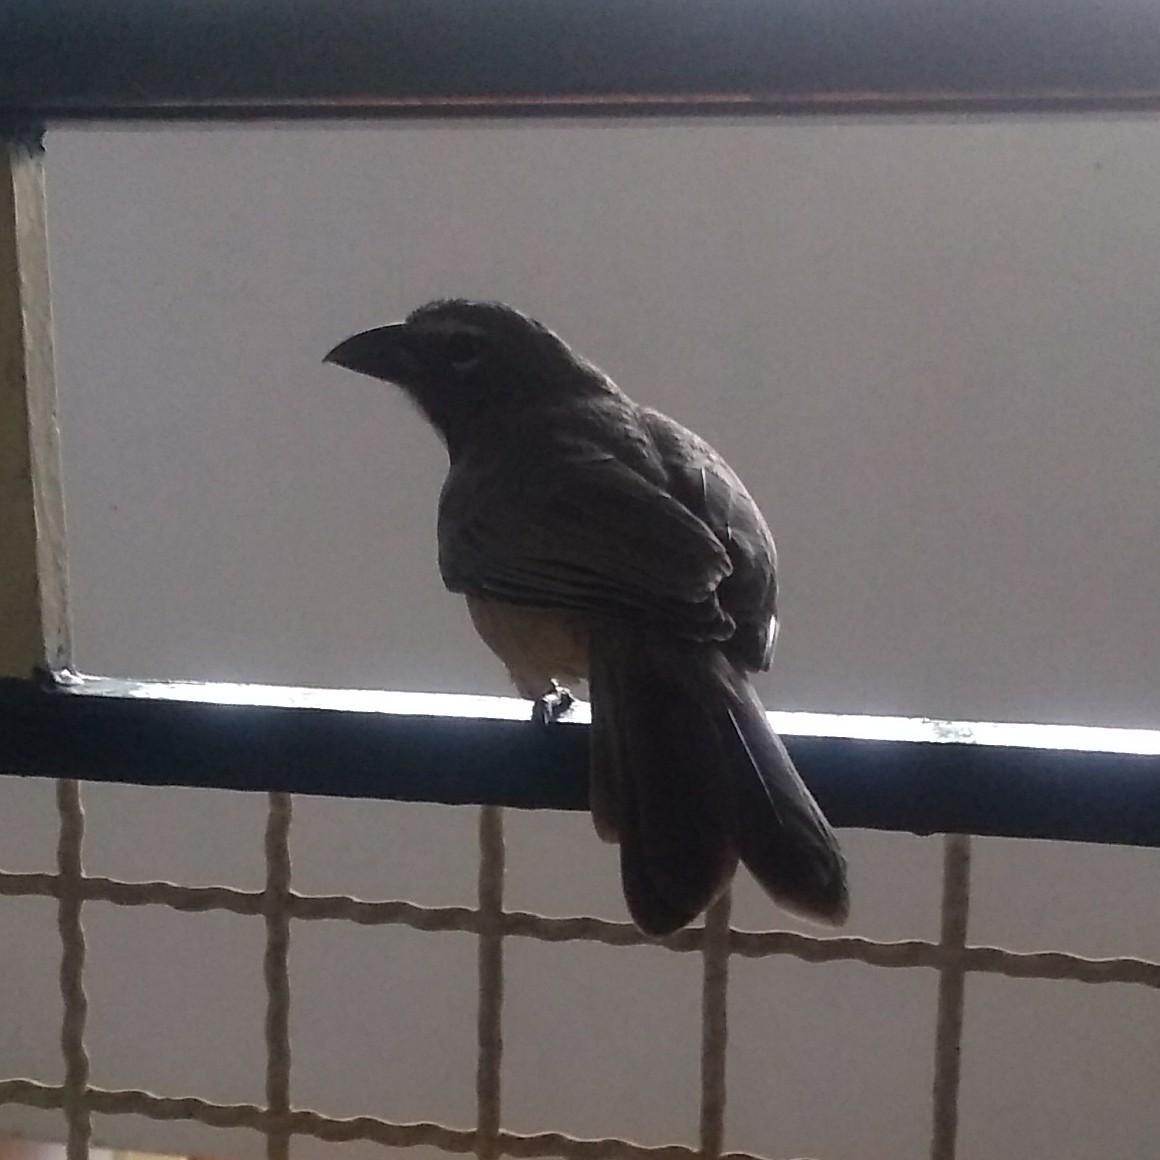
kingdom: Animalia
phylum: Chordata
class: Aves
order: Passeriformes
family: Thraupidae
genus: Saltator
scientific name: Saltator olivascens
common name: Caribbean grey saltator
